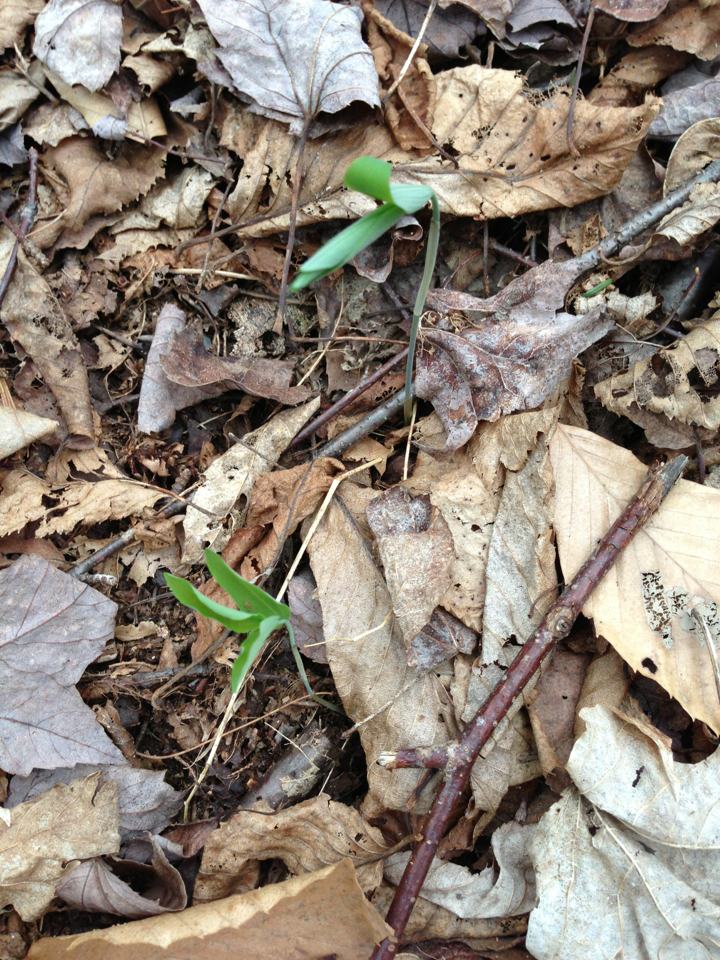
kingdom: Plantae
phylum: Tracheophyta
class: Liliopsida
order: Asparagales
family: Asparagaceae
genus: Polygonatum
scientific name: Polygonatum pubescens
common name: Downy solomon's seal
